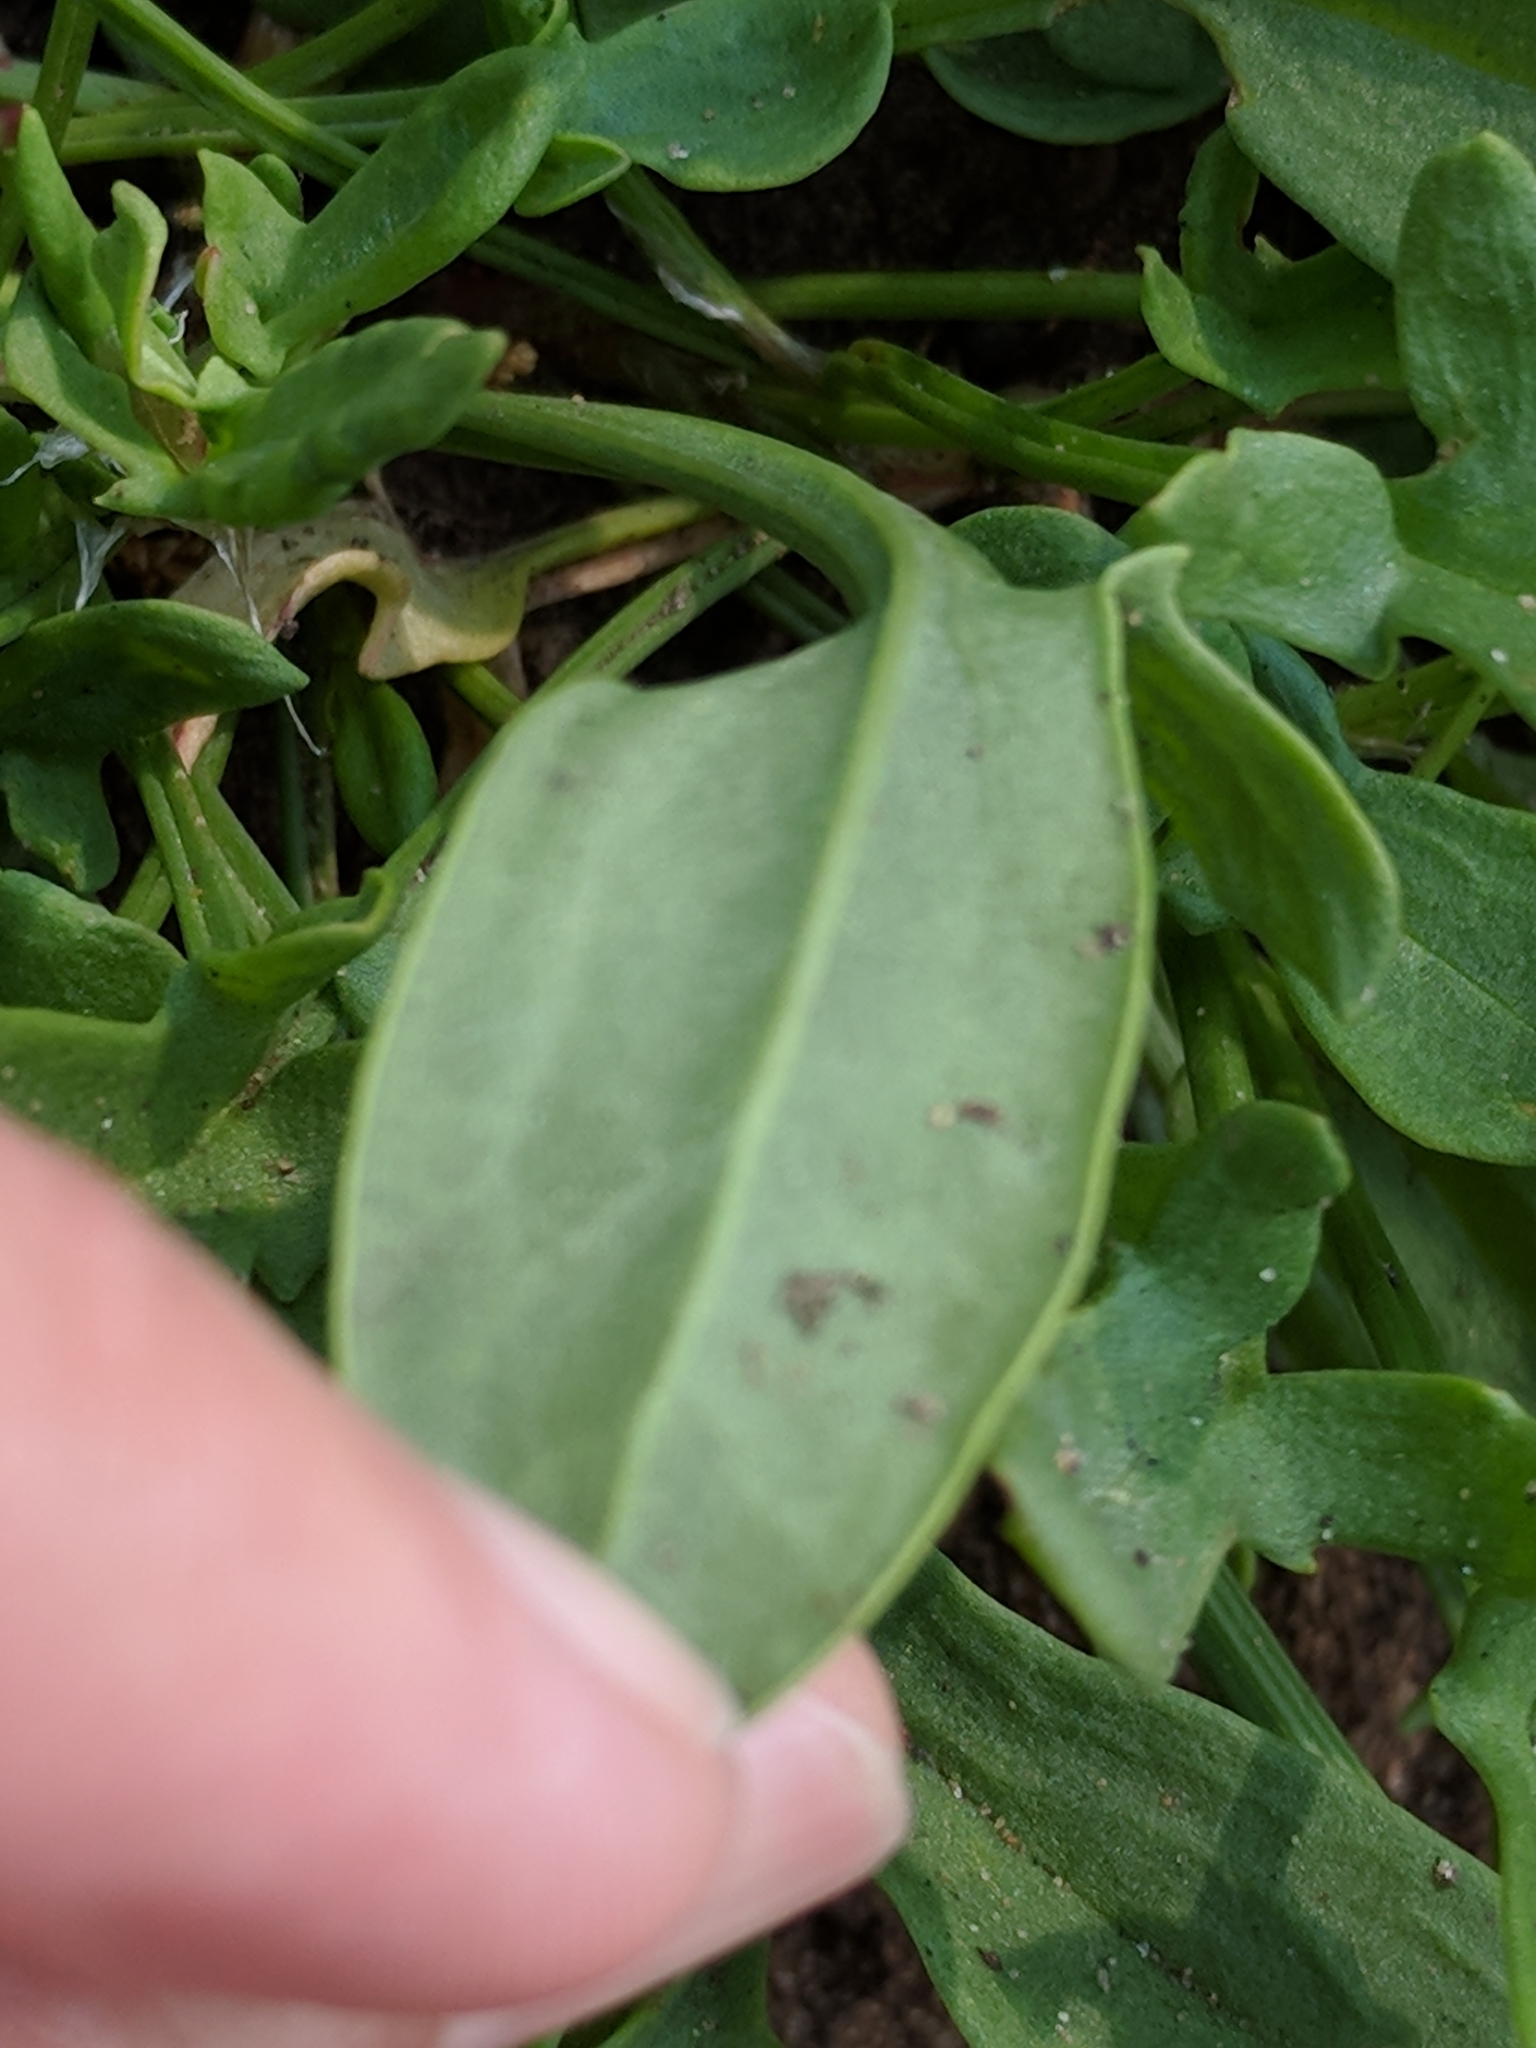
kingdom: Plantae
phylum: Tracheophyta
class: Magnoliopsida
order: Caryophyllales
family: Polygonaceae
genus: Rumex
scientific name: Rumex acetosella
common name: Common sheep sorrel
